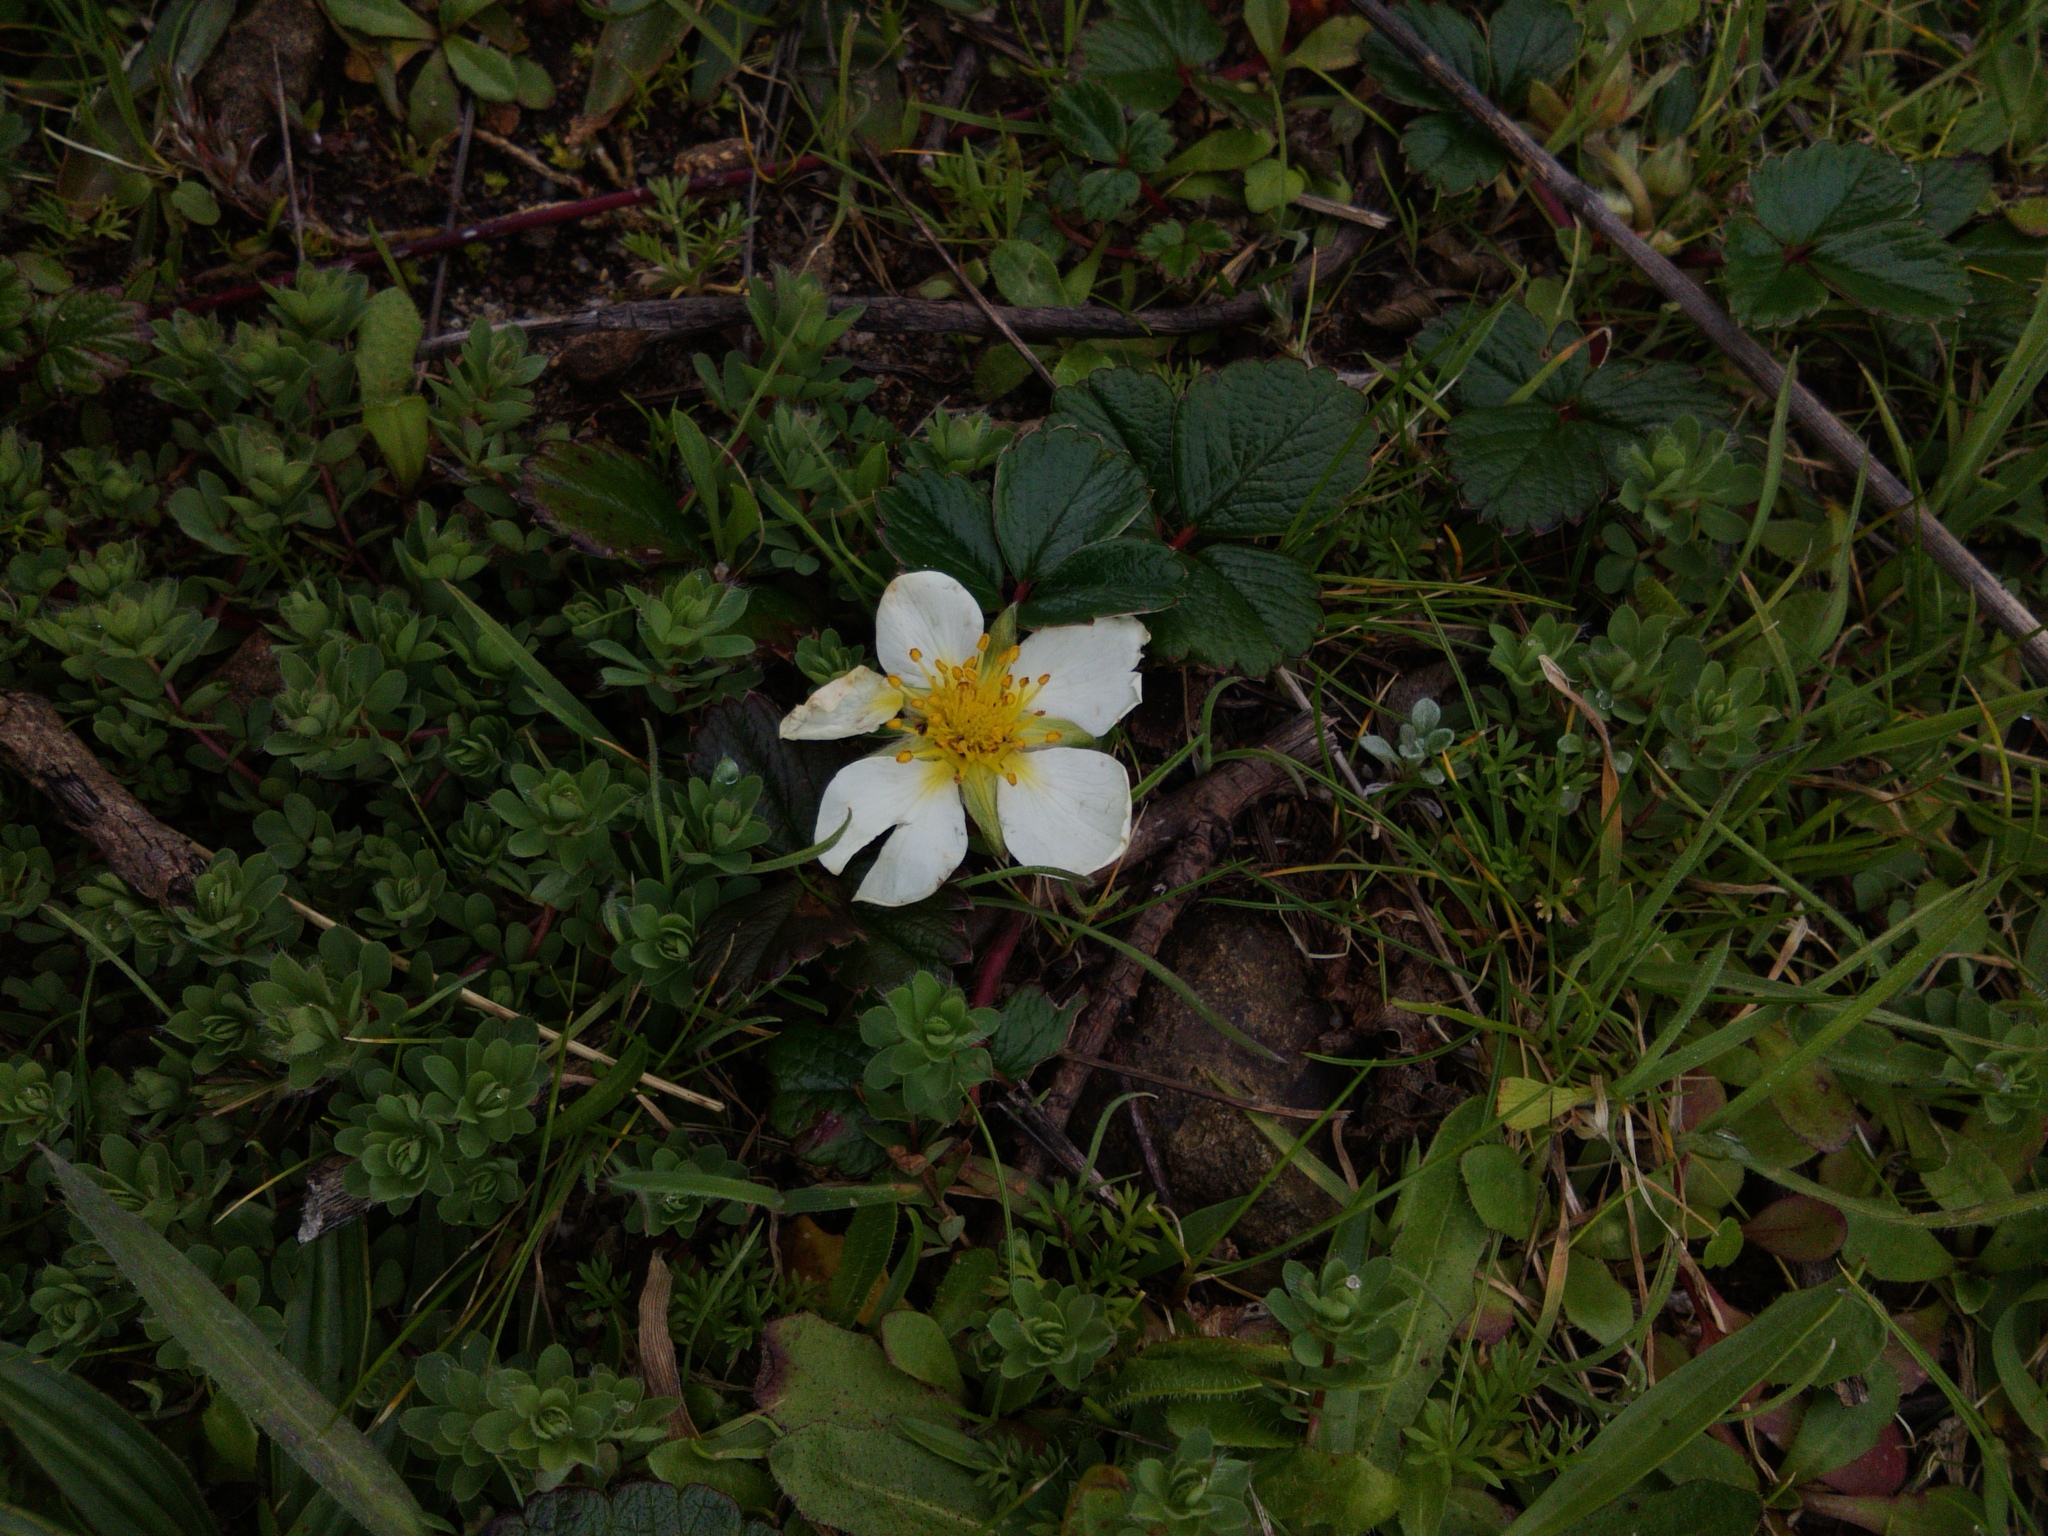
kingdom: Plantae
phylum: Tracheophyta
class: Magnoliopsida
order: Rosales
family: Rosaceae
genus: Fragaria
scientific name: Fragaria chiloensis
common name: Beach strawberry
